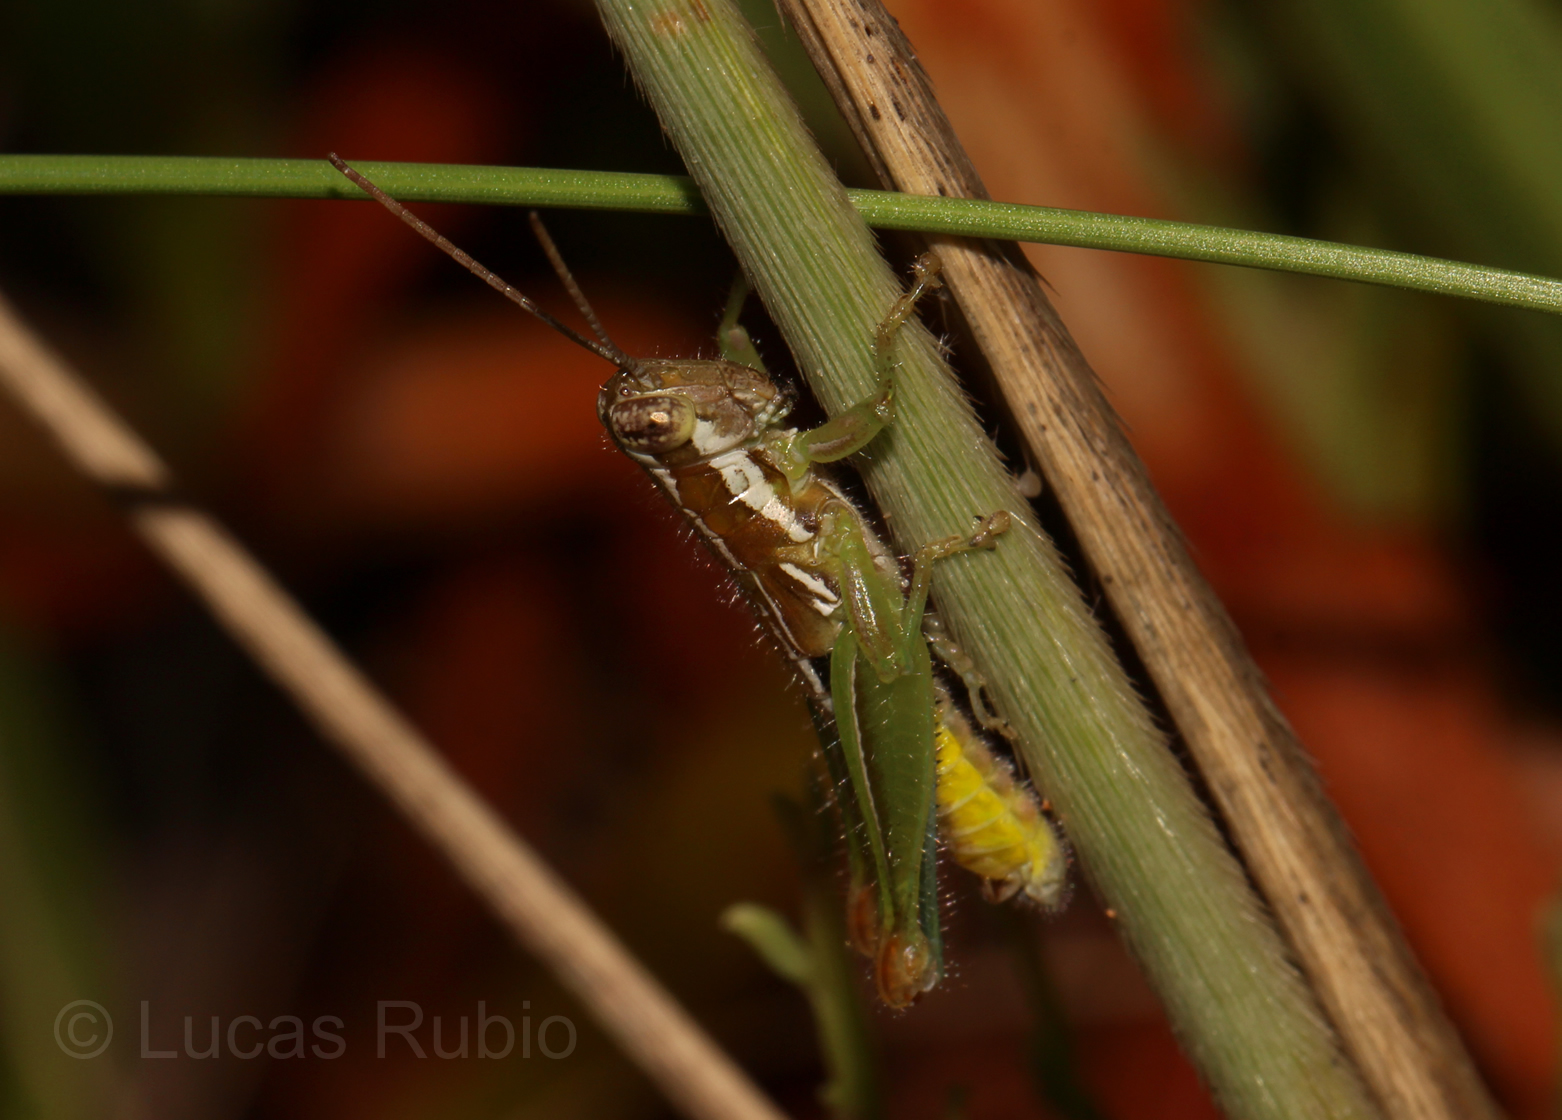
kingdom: Animalia
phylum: Arthropoda
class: Insecta
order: Orthoptera
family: Acrididae
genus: Neopedies
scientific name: Neopedies brunneri
